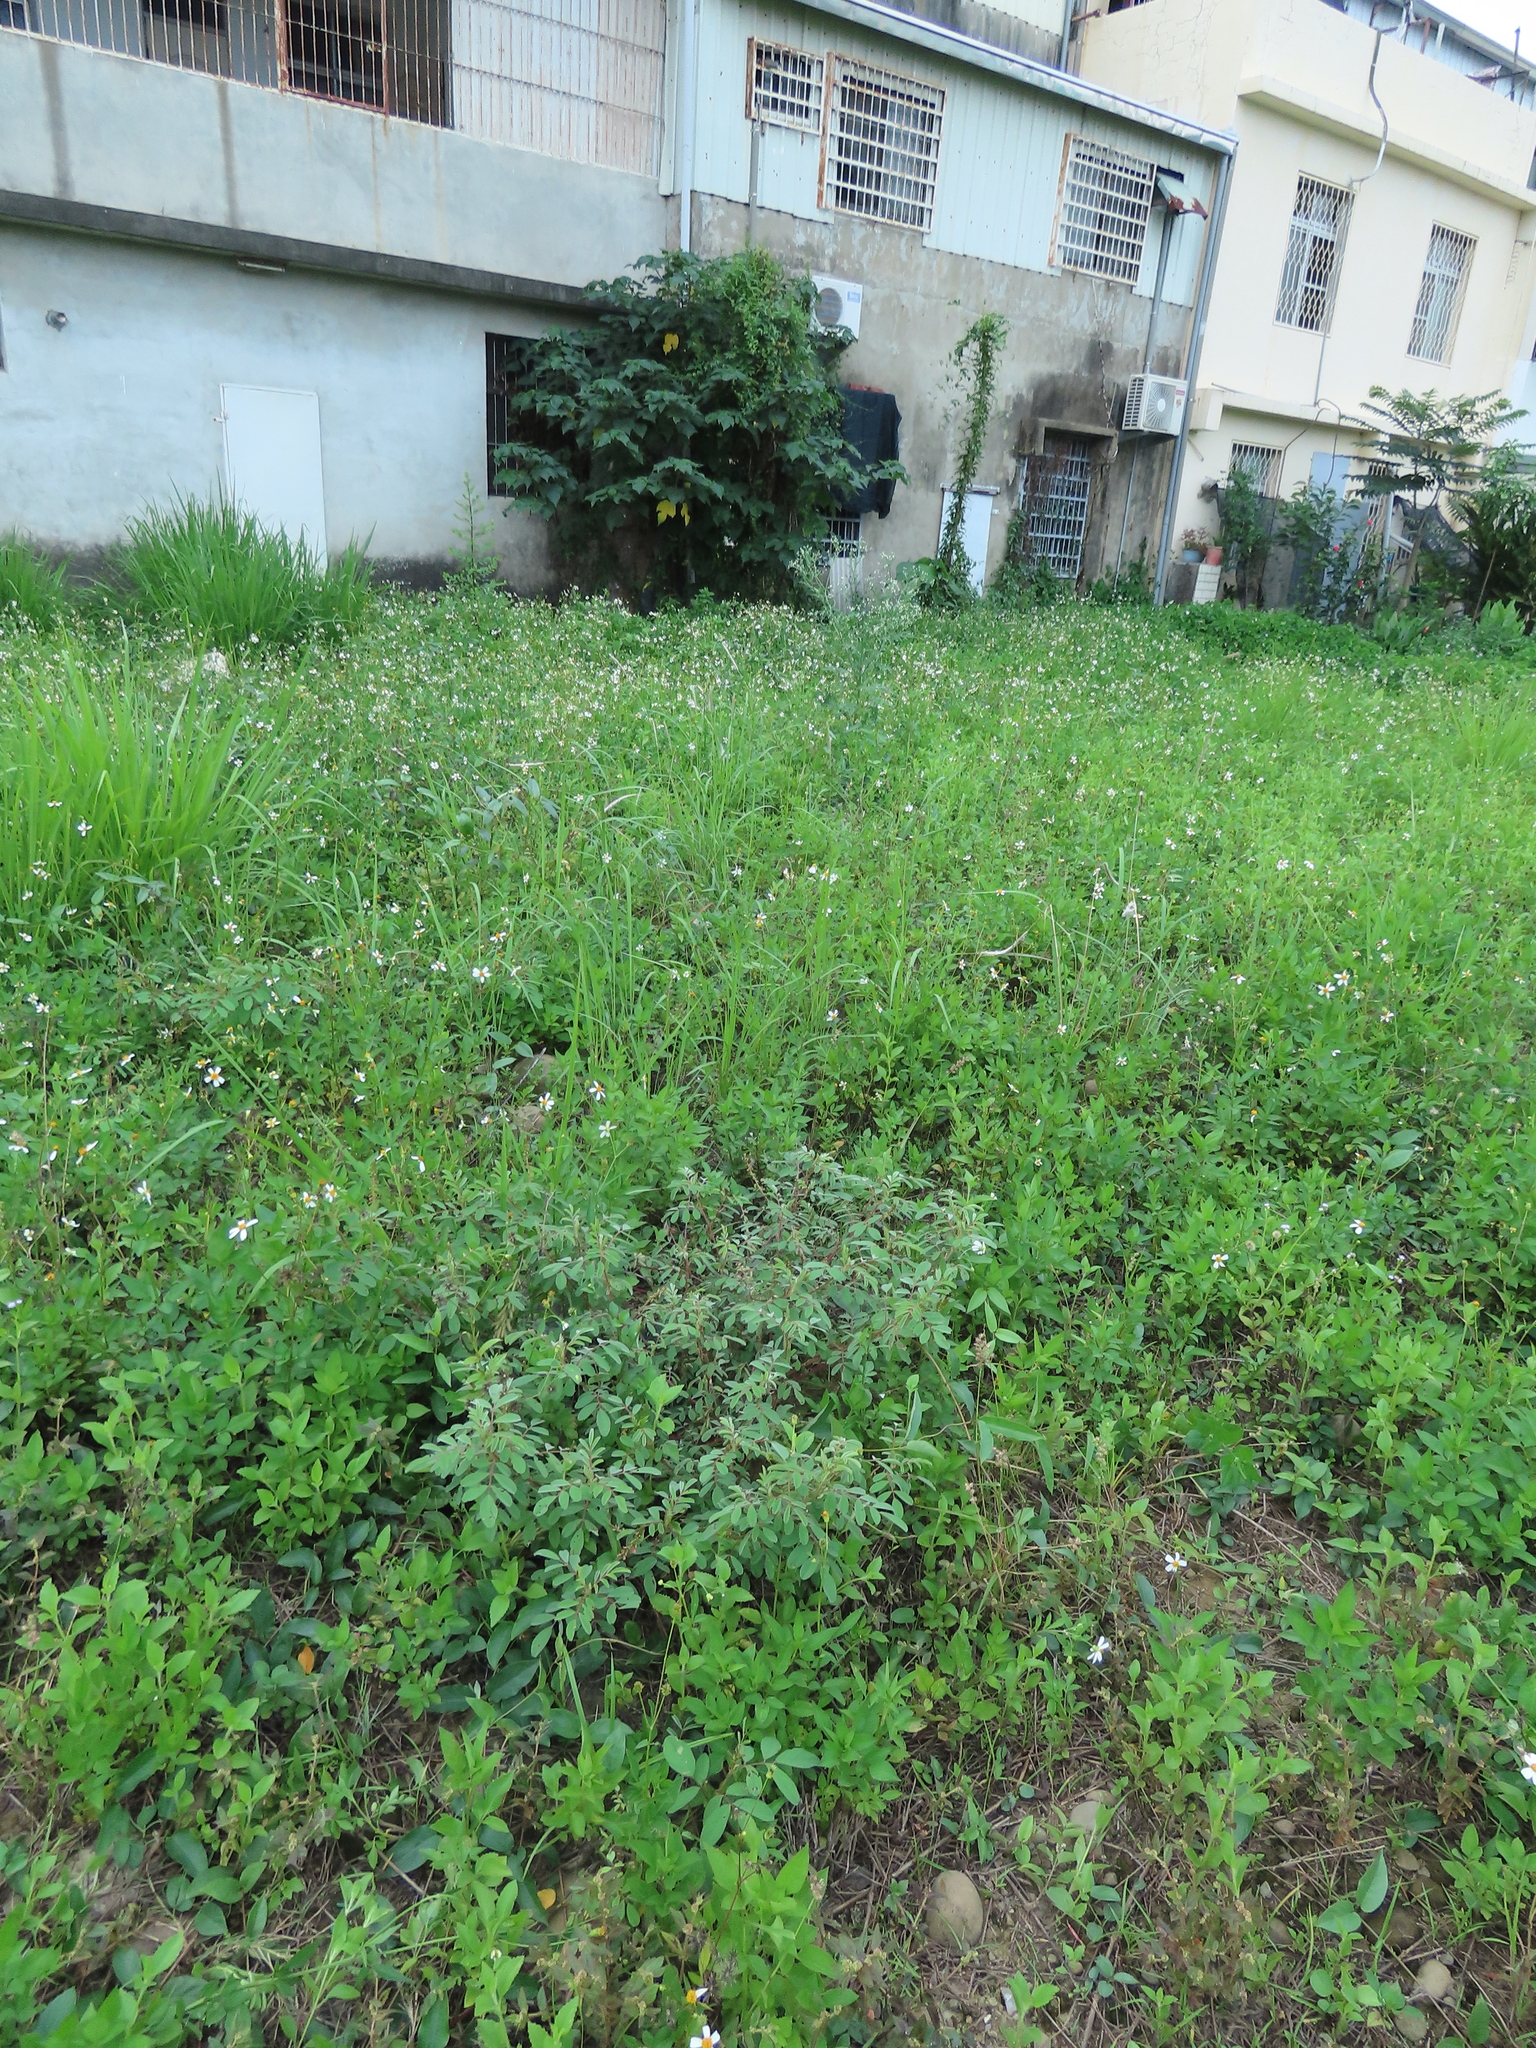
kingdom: Plantae
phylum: Tracheophyta
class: Magnoliopsida
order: Fabales
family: Fabaceae
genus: Indigofera
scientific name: Indigofera hirsuta
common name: Hairy indigo
